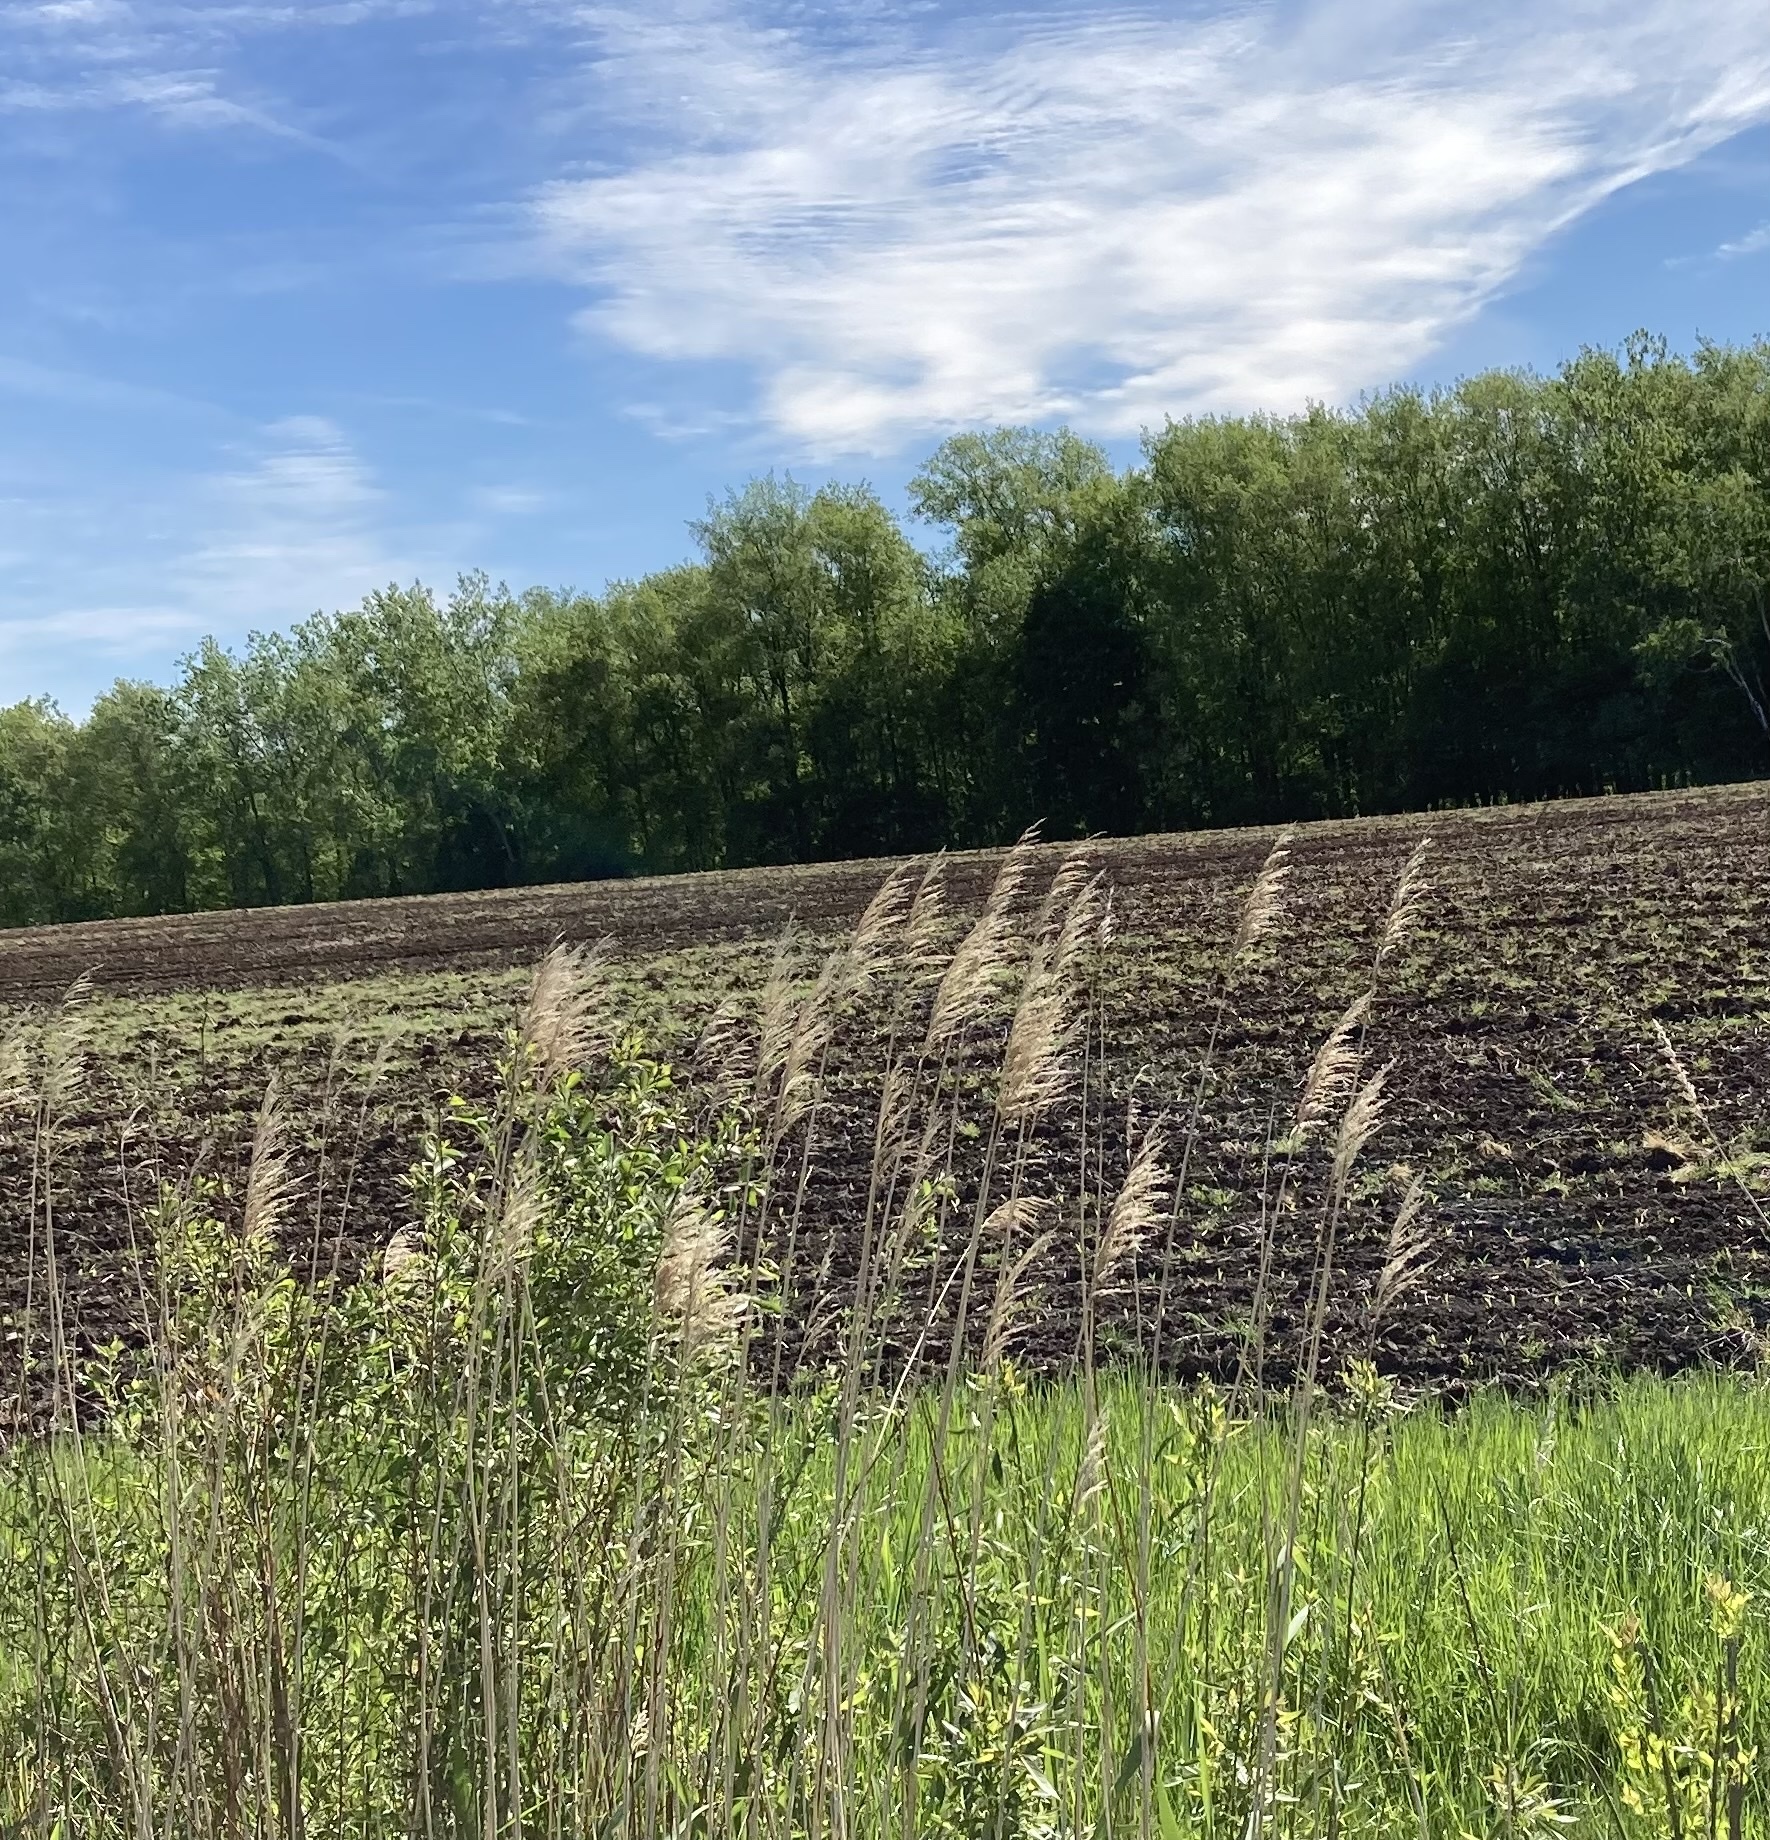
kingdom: Plantae
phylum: Tracheophyta
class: Liliopsida
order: Poales
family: Poaceae
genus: Phragmites
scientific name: Phragmites australis
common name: Common reed
